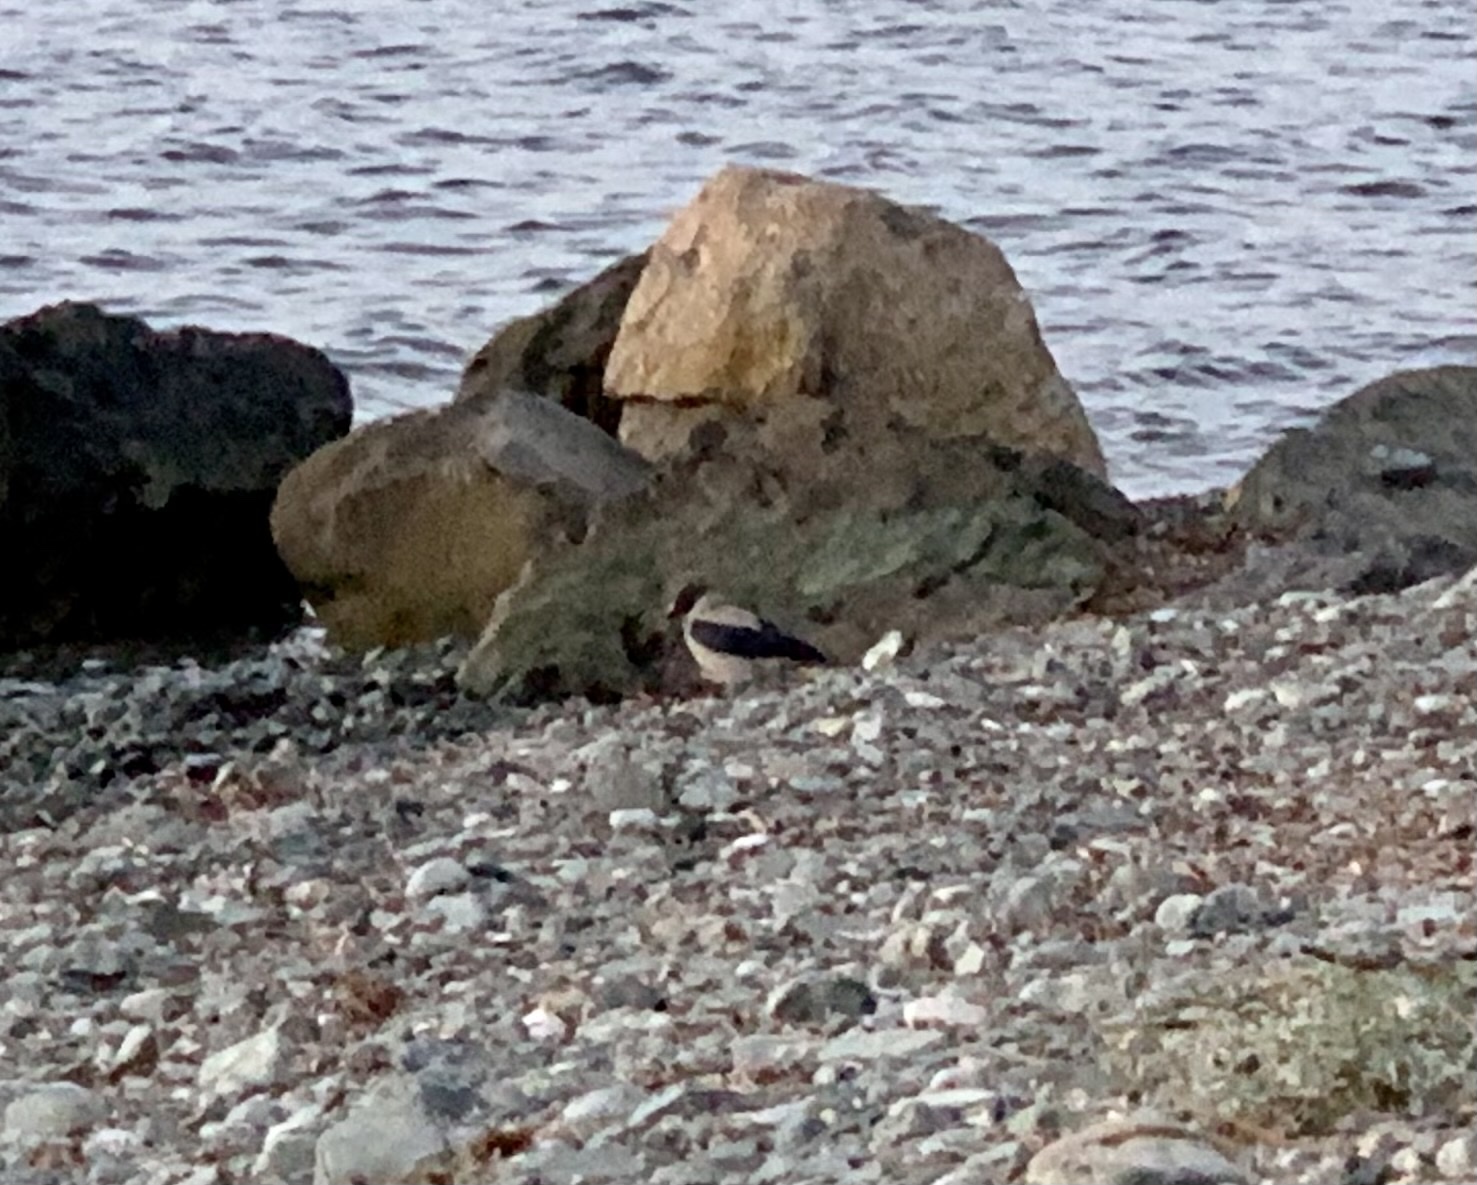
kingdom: Animalia
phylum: Chordata
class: Aves
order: Passeriformes
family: Corvidae
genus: Corvus
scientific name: Corvus cornix
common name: Hooded crow
